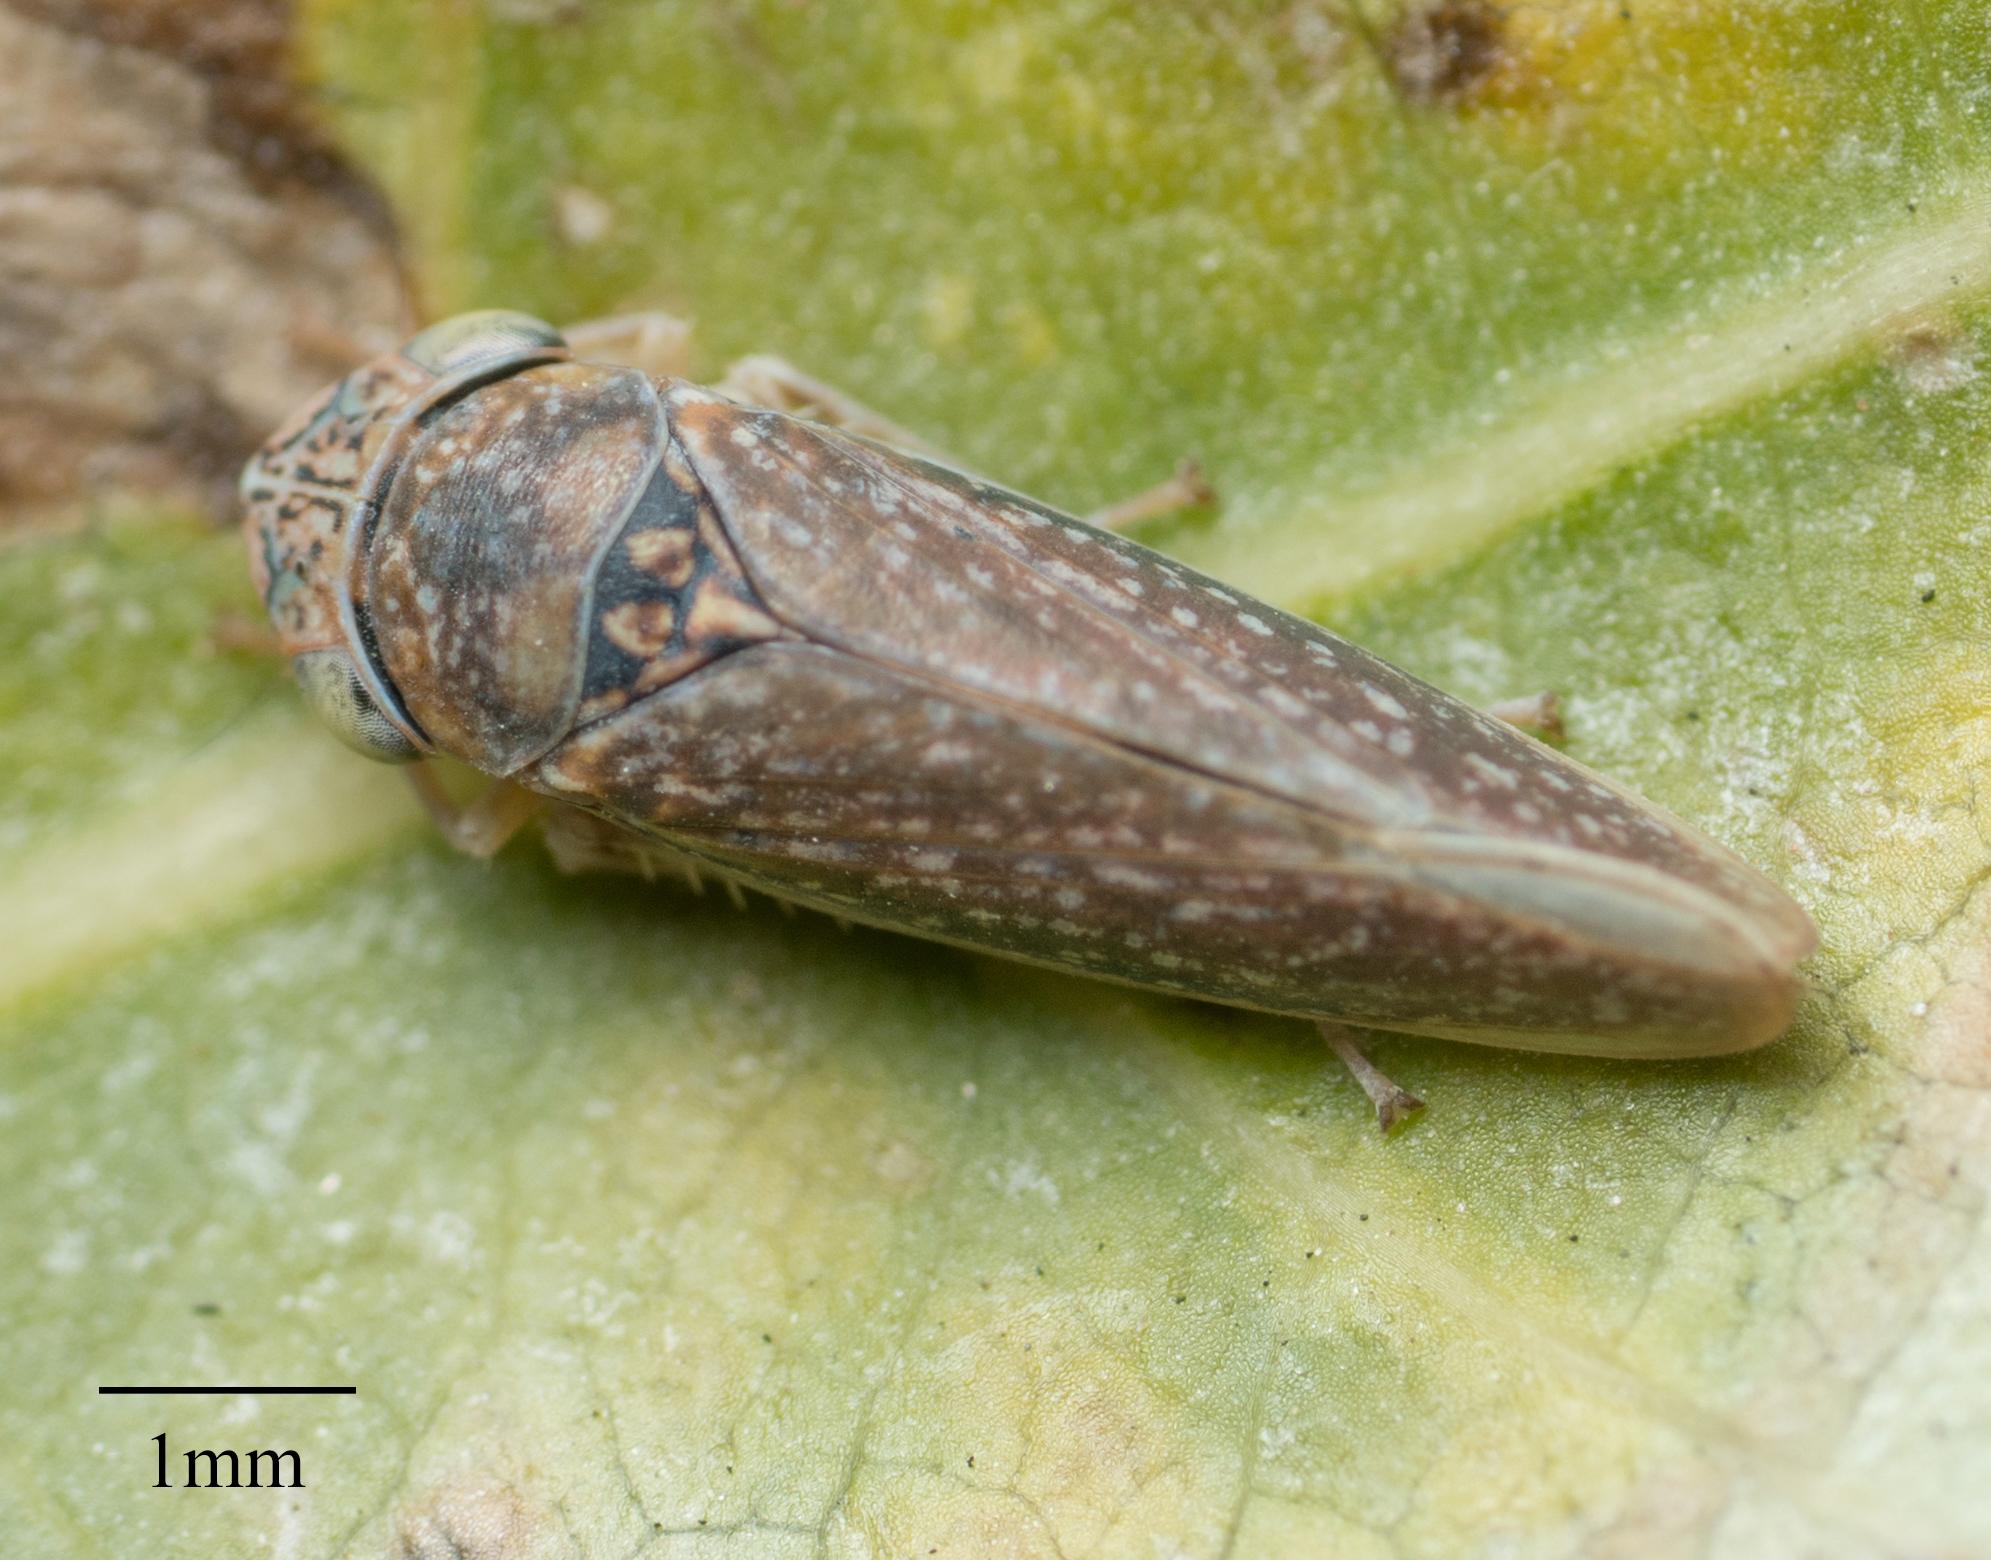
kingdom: Animalia
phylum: Arthropoda
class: Insecta
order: Hemiptera
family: Cicadellidae
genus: Graphocephala
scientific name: Graphocephala confluens
